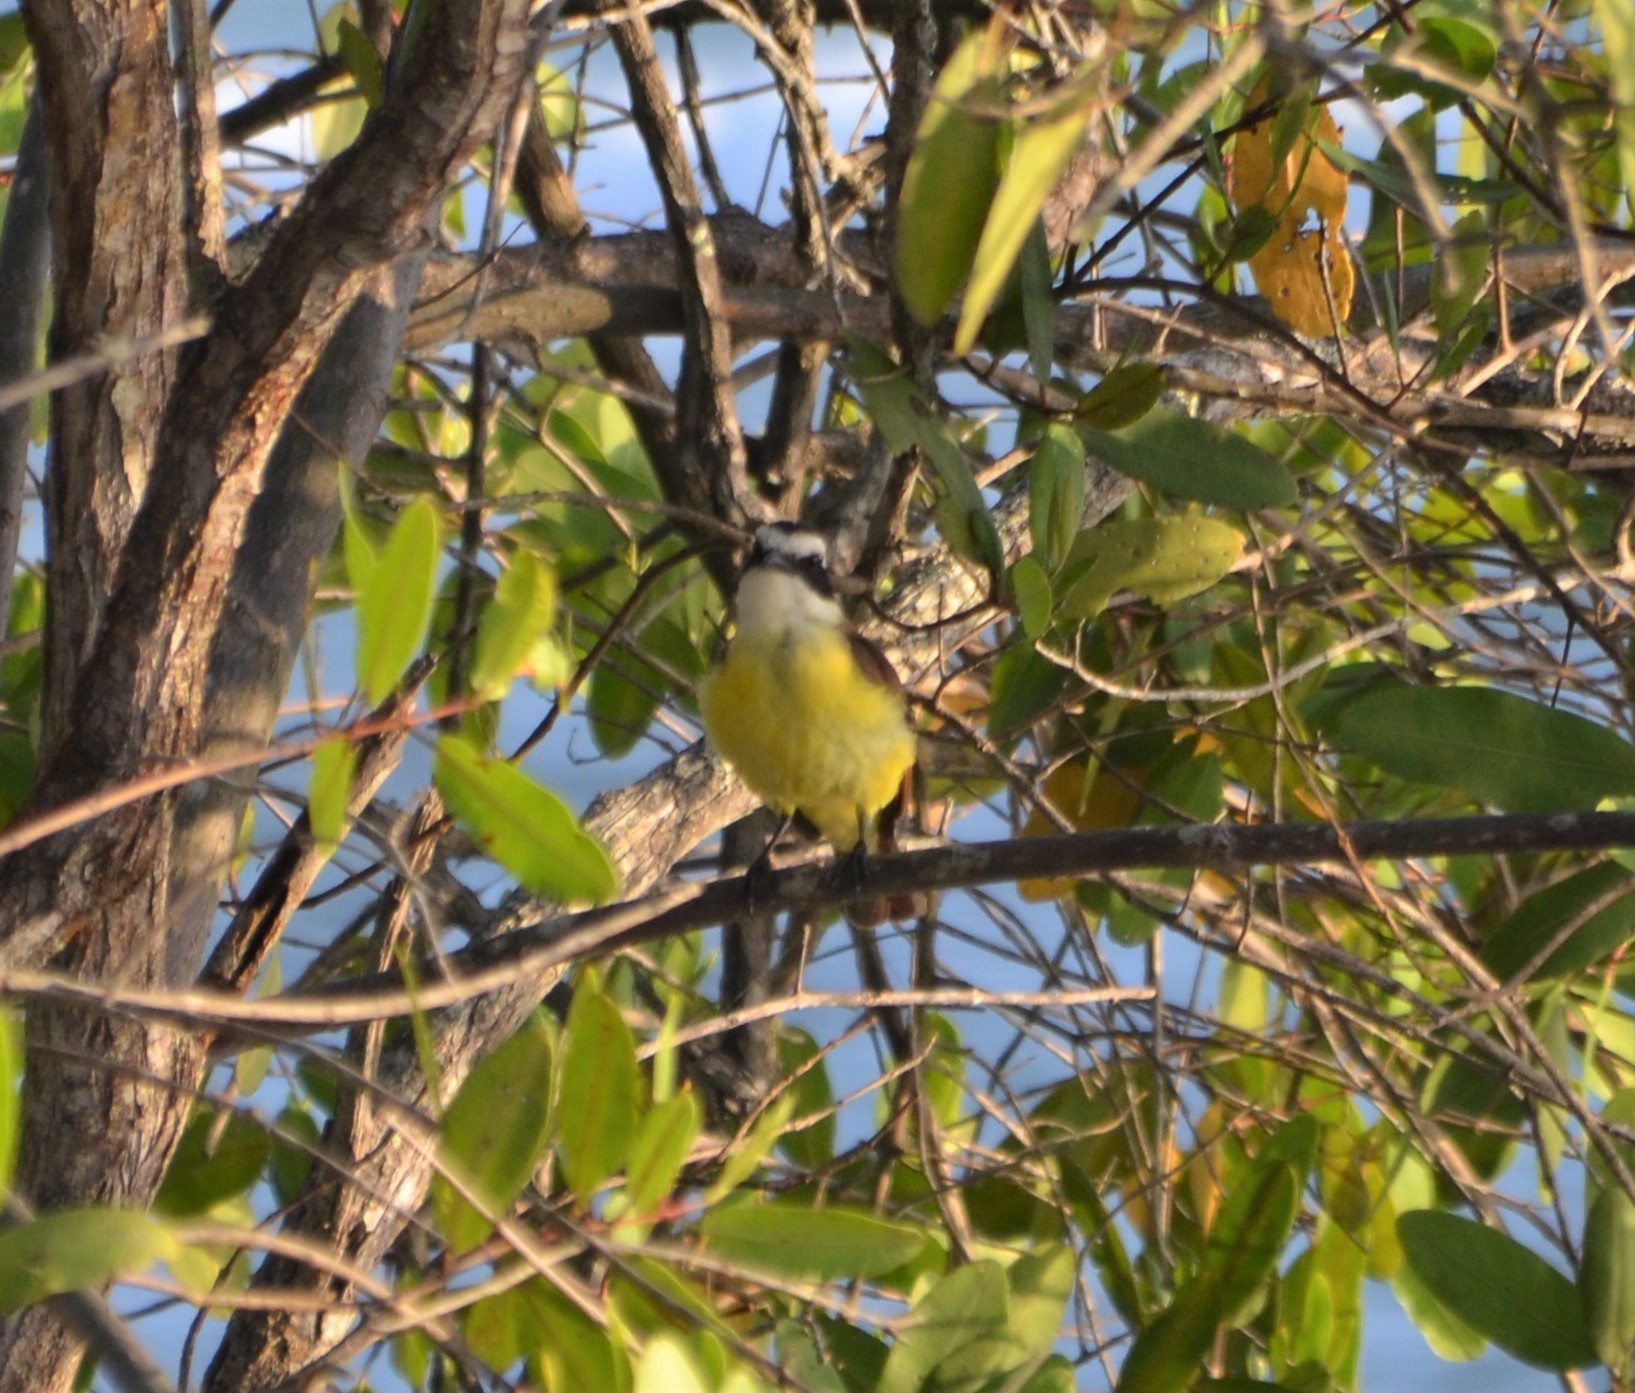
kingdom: Animalia
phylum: Chordata
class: Aves
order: Passeriformes
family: Tyrannidae
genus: Pitangus
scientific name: Pitangus sulphuratus
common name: Great kiskadee
